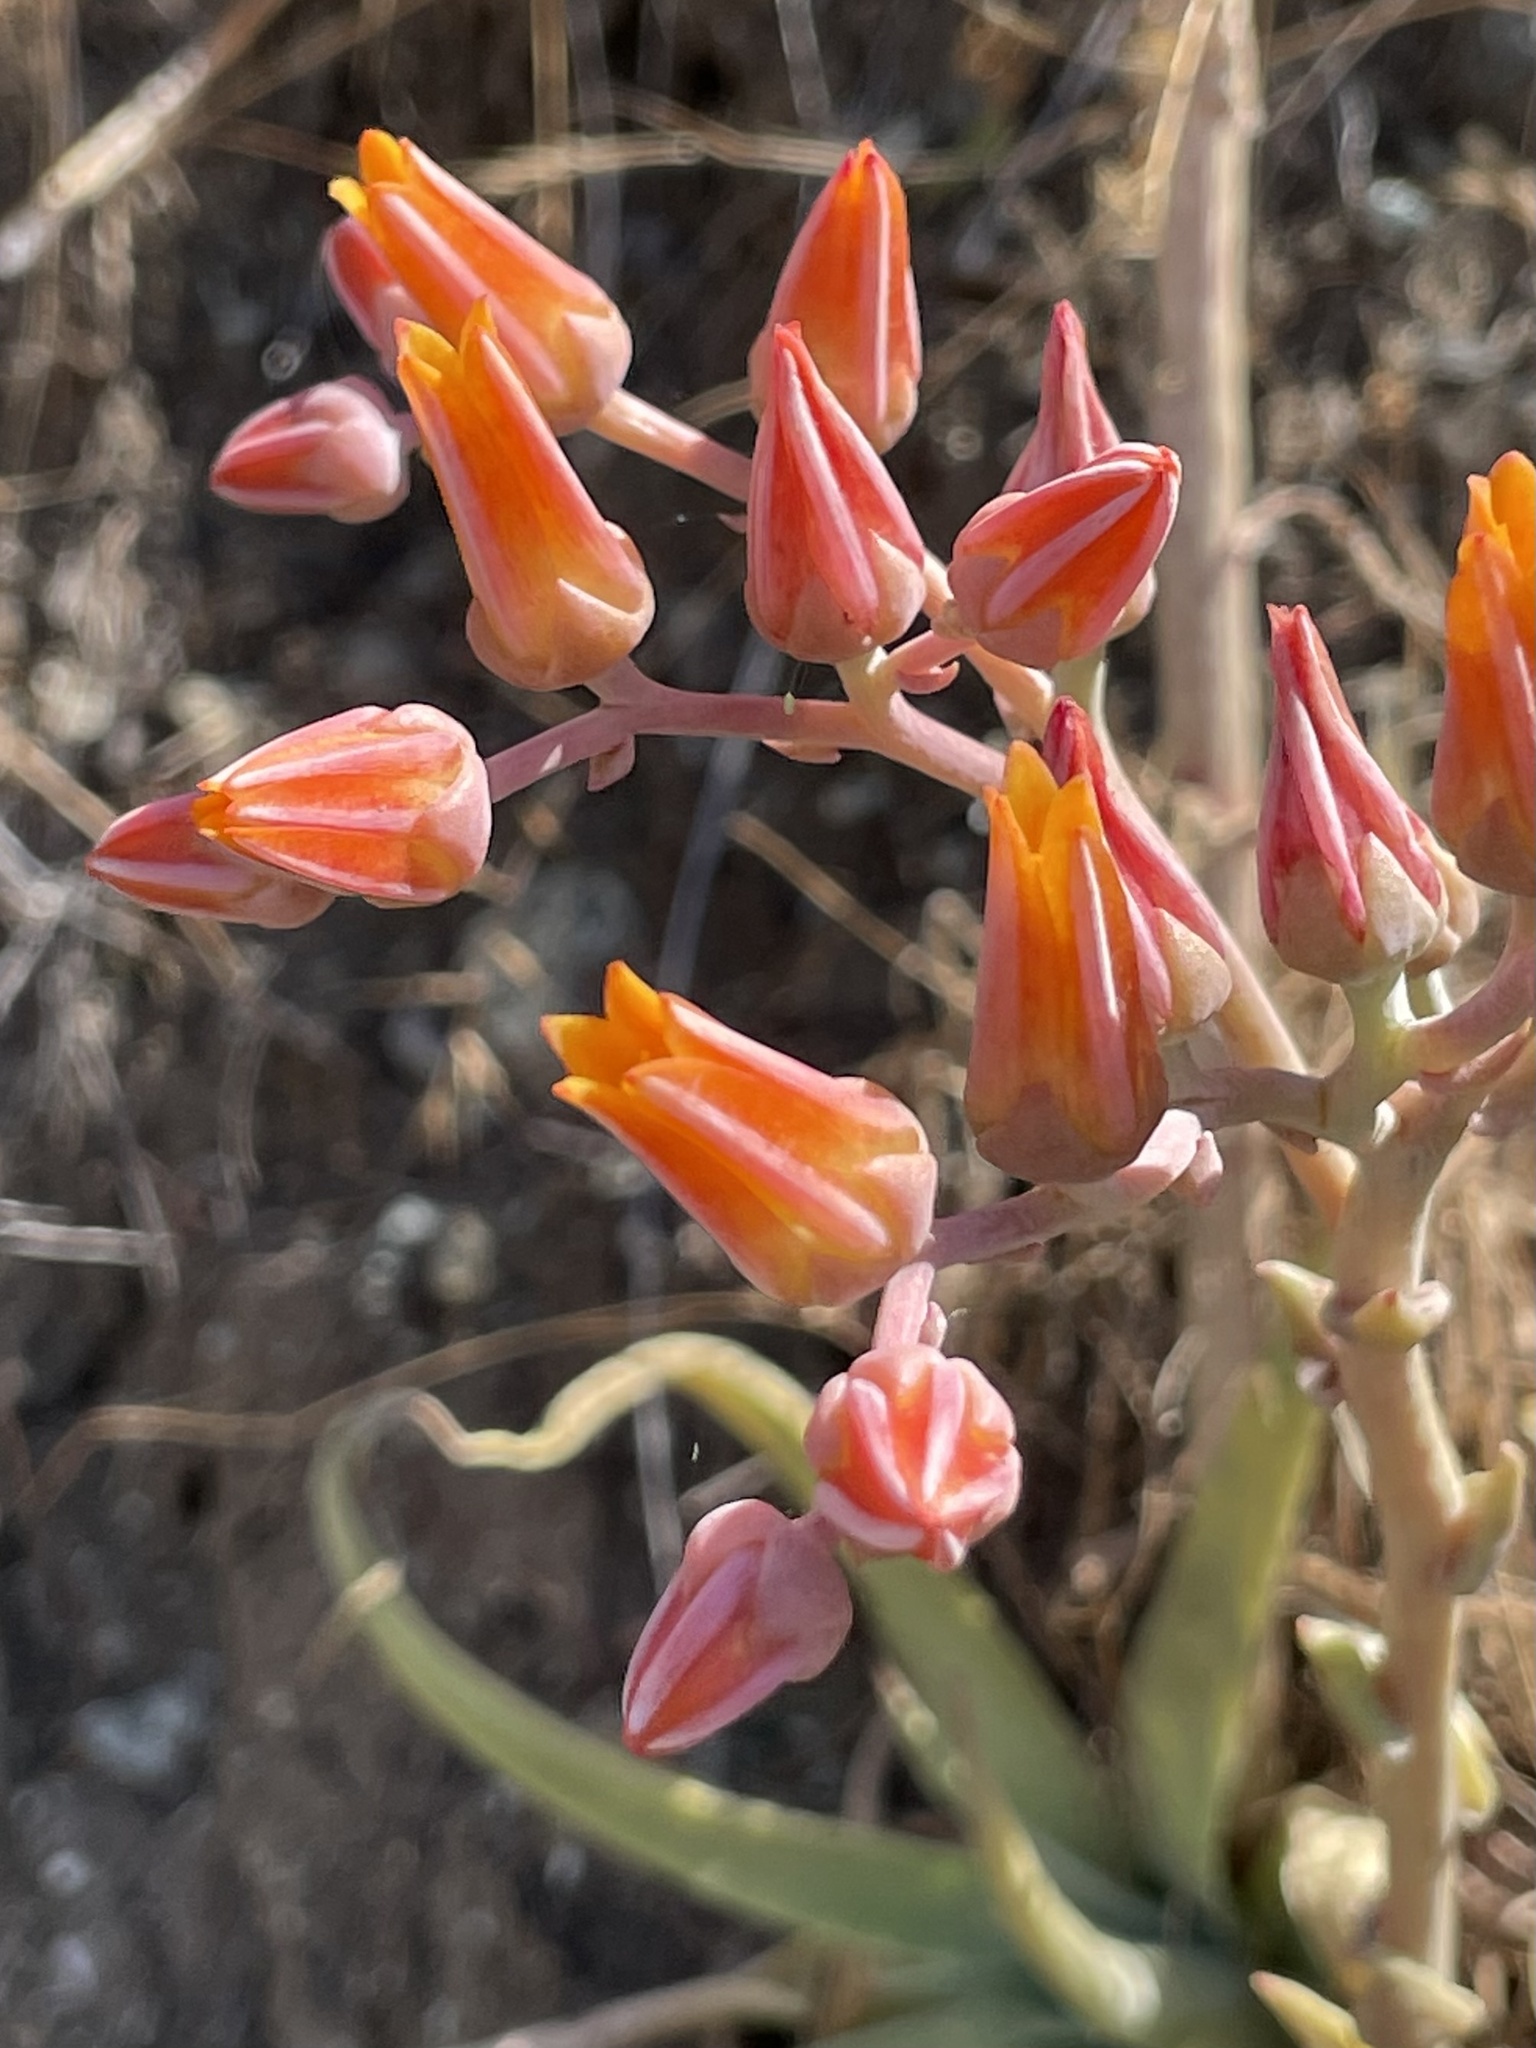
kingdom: Plantae
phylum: Tracheophyta
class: Magnoliopsida
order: Saxifragales
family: Crassulaceae
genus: Dudleya
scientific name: Dudleya lanceolata
